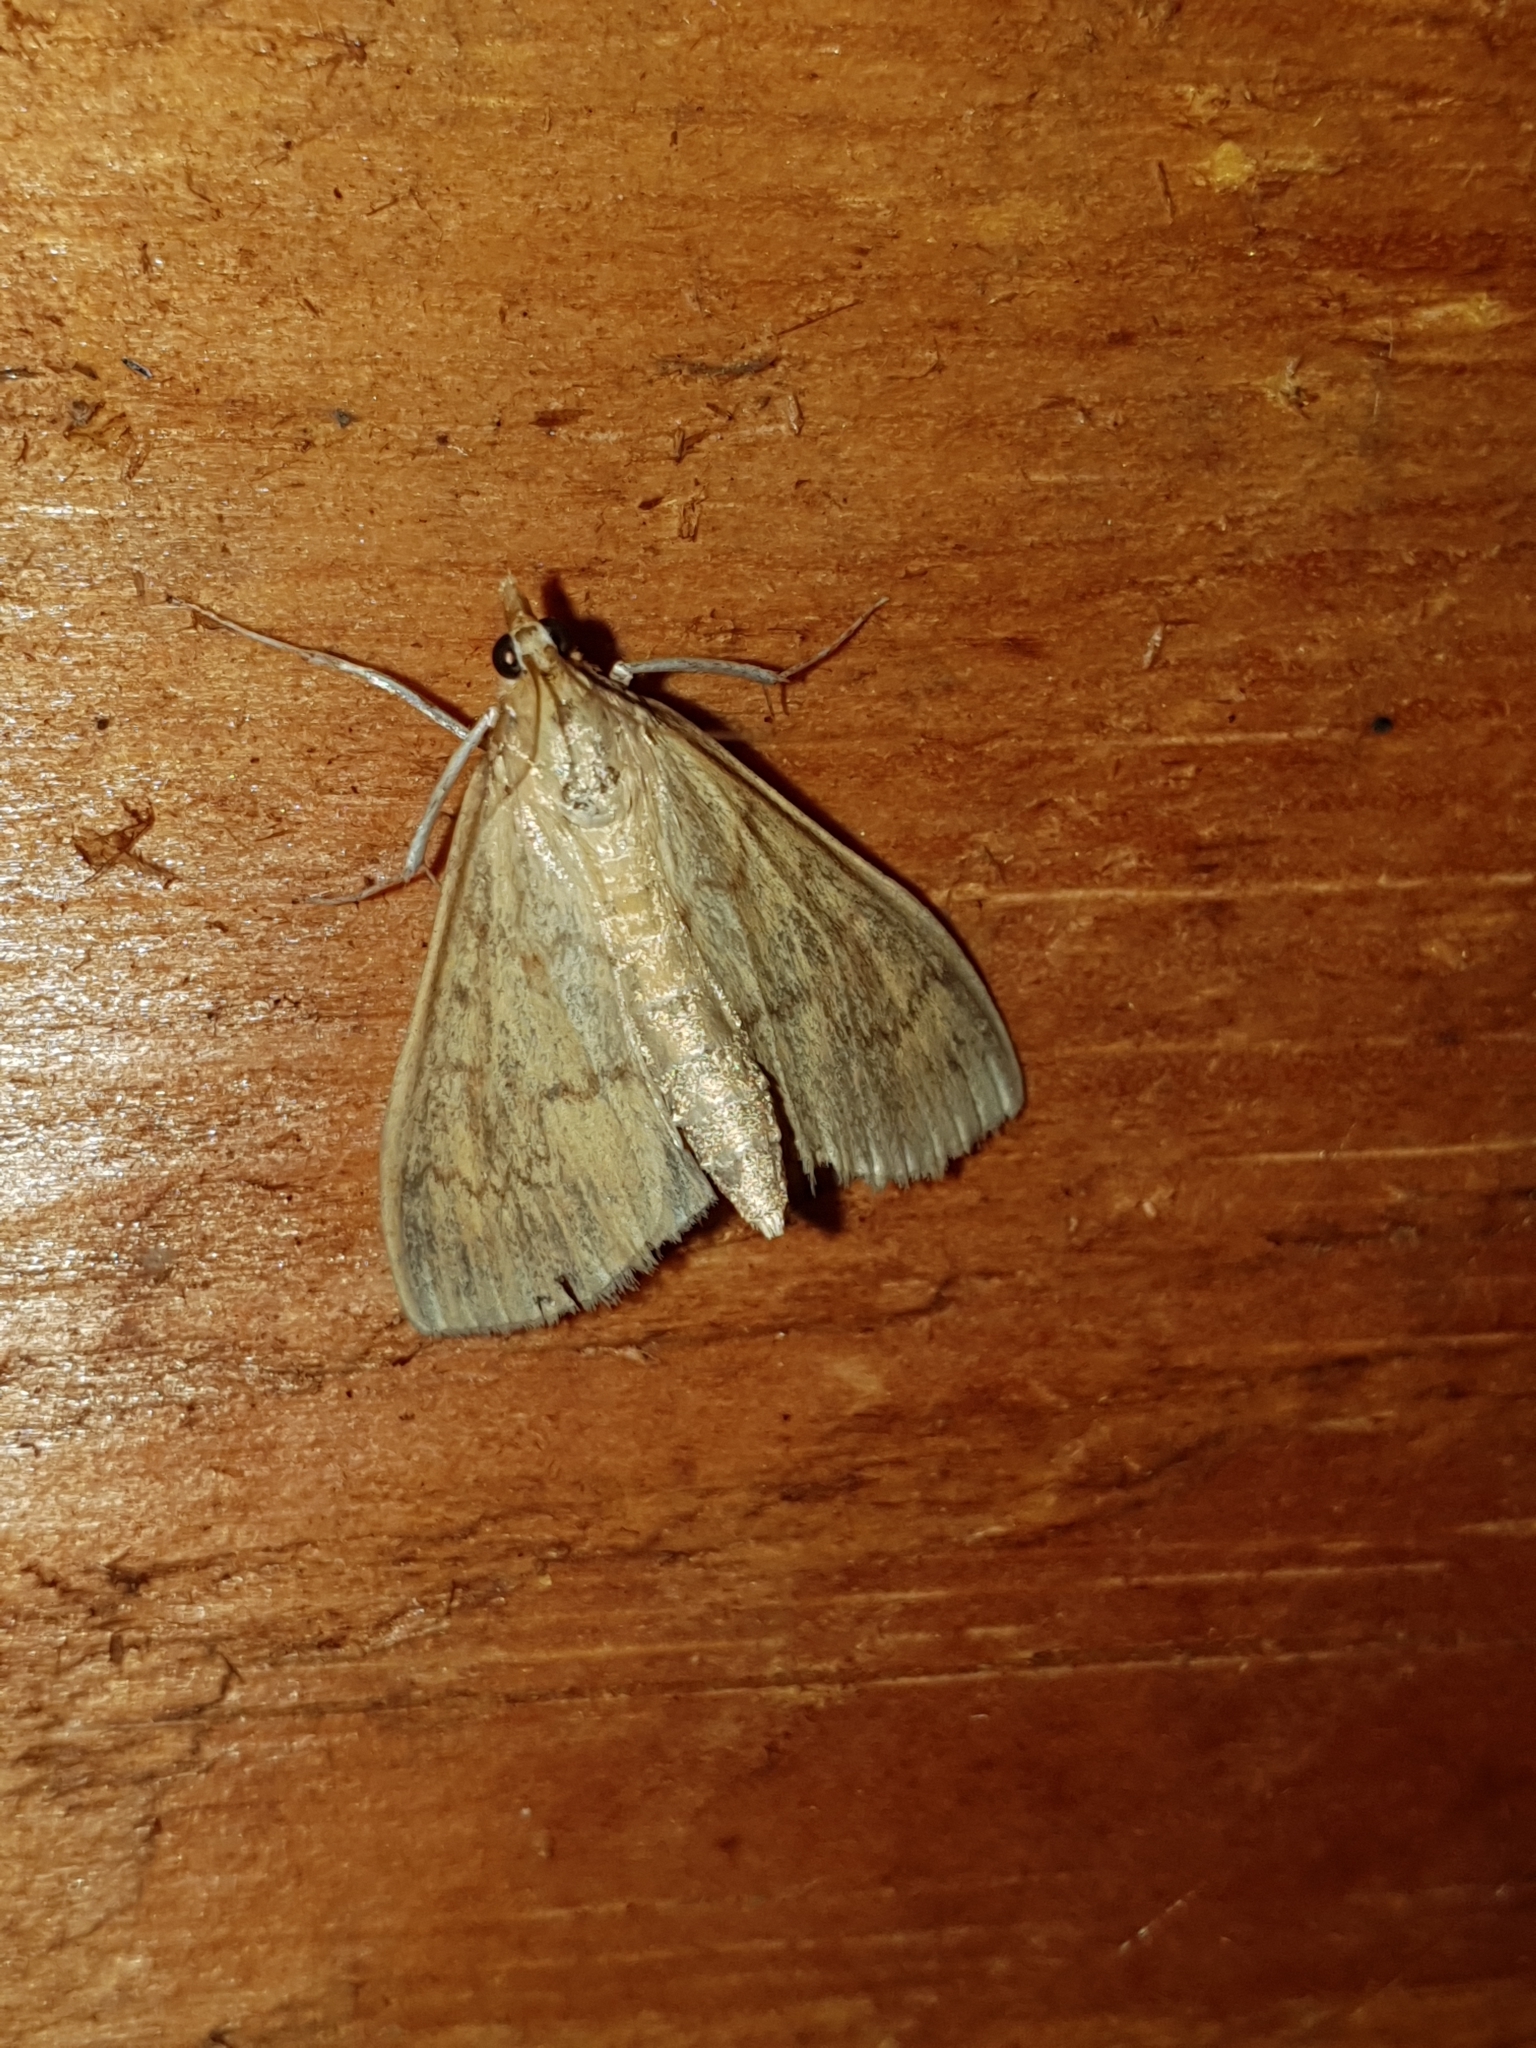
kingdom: Animalia
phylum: Arthropoda
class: Insecta
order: Lepidoptera
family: Crambidae
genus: Ostrinia
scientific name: Ostrinia nubilalis
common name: European corn borer
